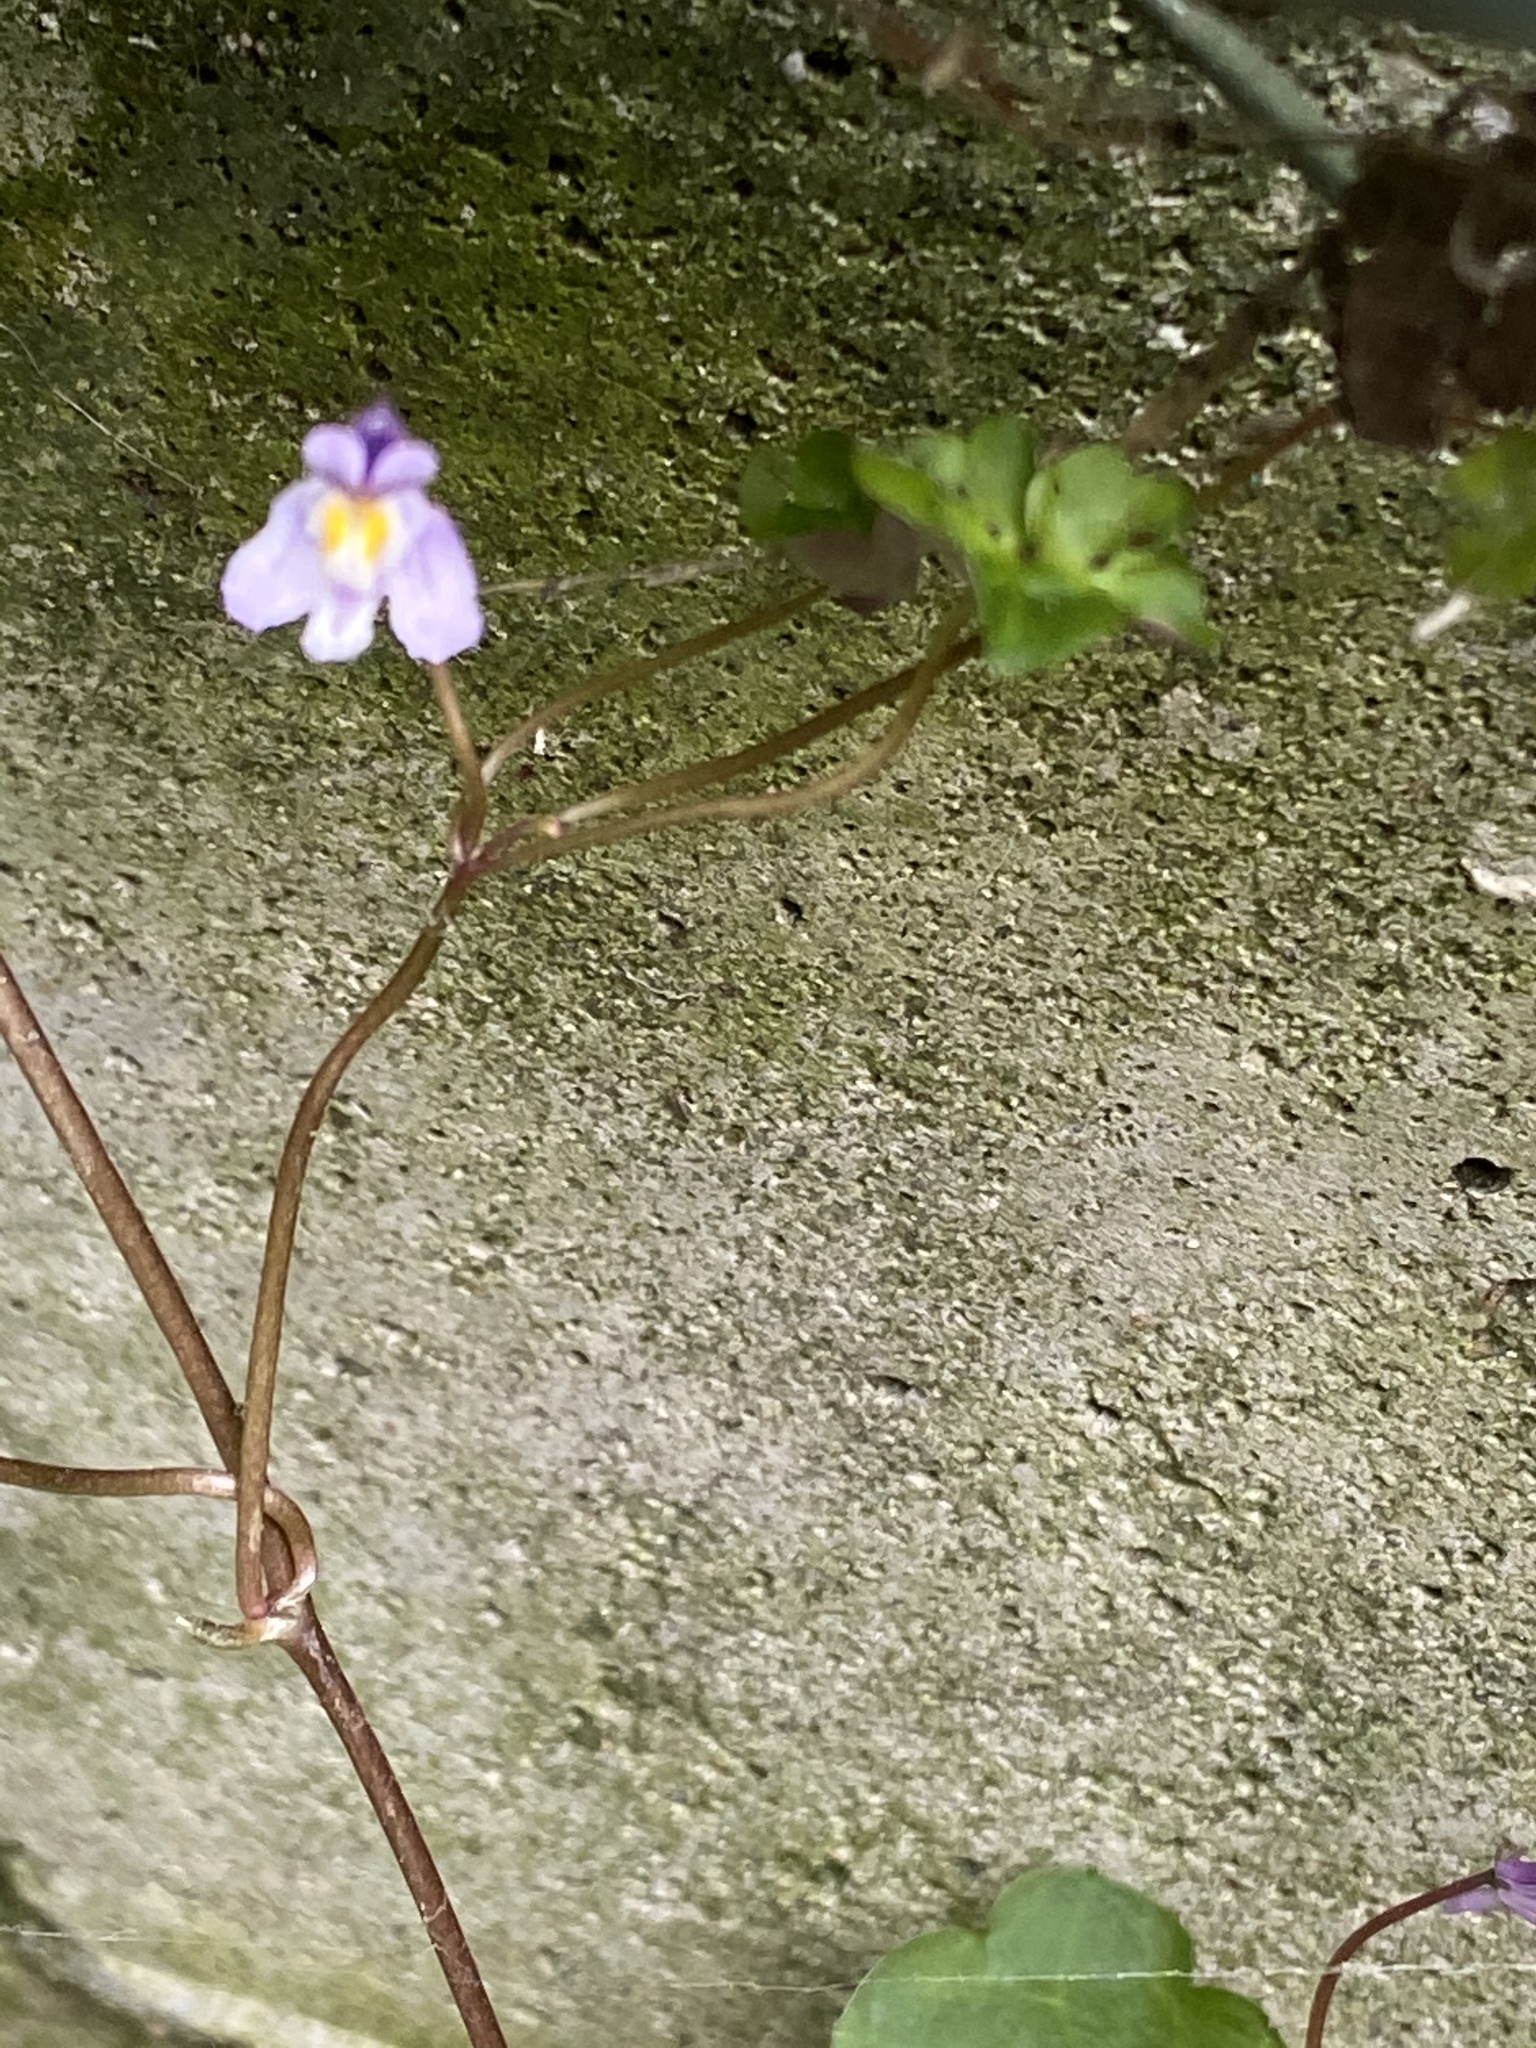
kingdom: Plantae
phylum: Tracheophyta
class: Magnoliopsida
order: Lamiales
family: Plantaginaceae
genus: Cymbalaria
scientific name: Cymbalaria muralis
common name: Ivy-leaved toadflax
